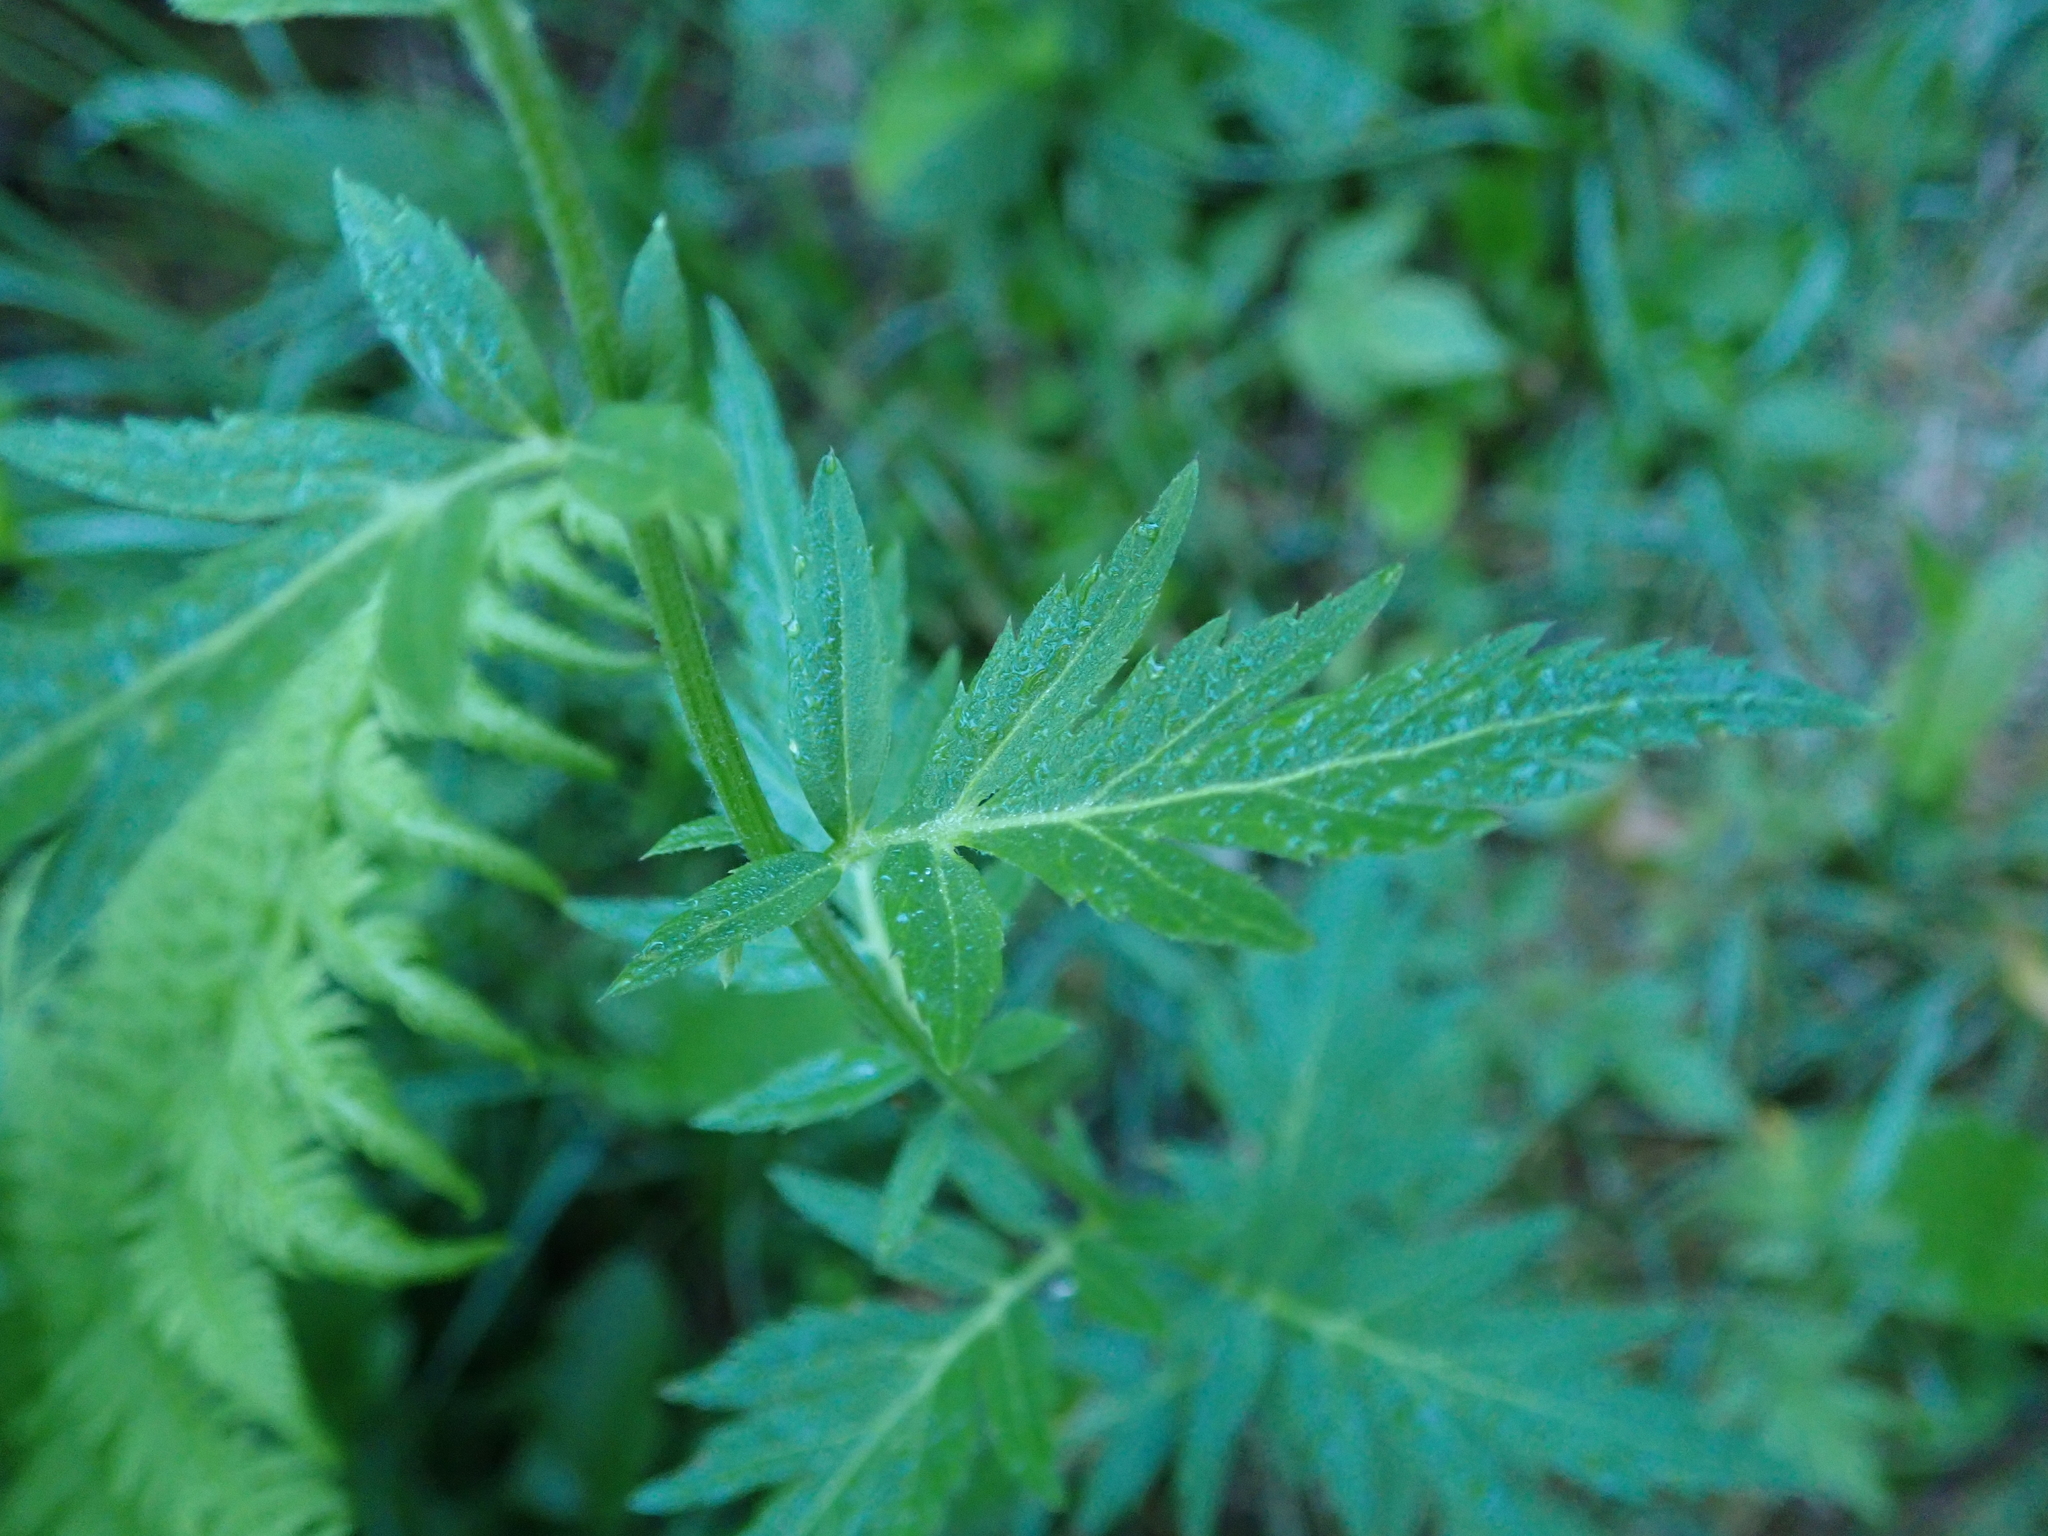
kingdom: Plantae
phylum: Tracheophyta
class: Magnoliopsida
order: Asterales
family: Asteraceae
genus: Achillea
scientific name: Achillea macrophylla
